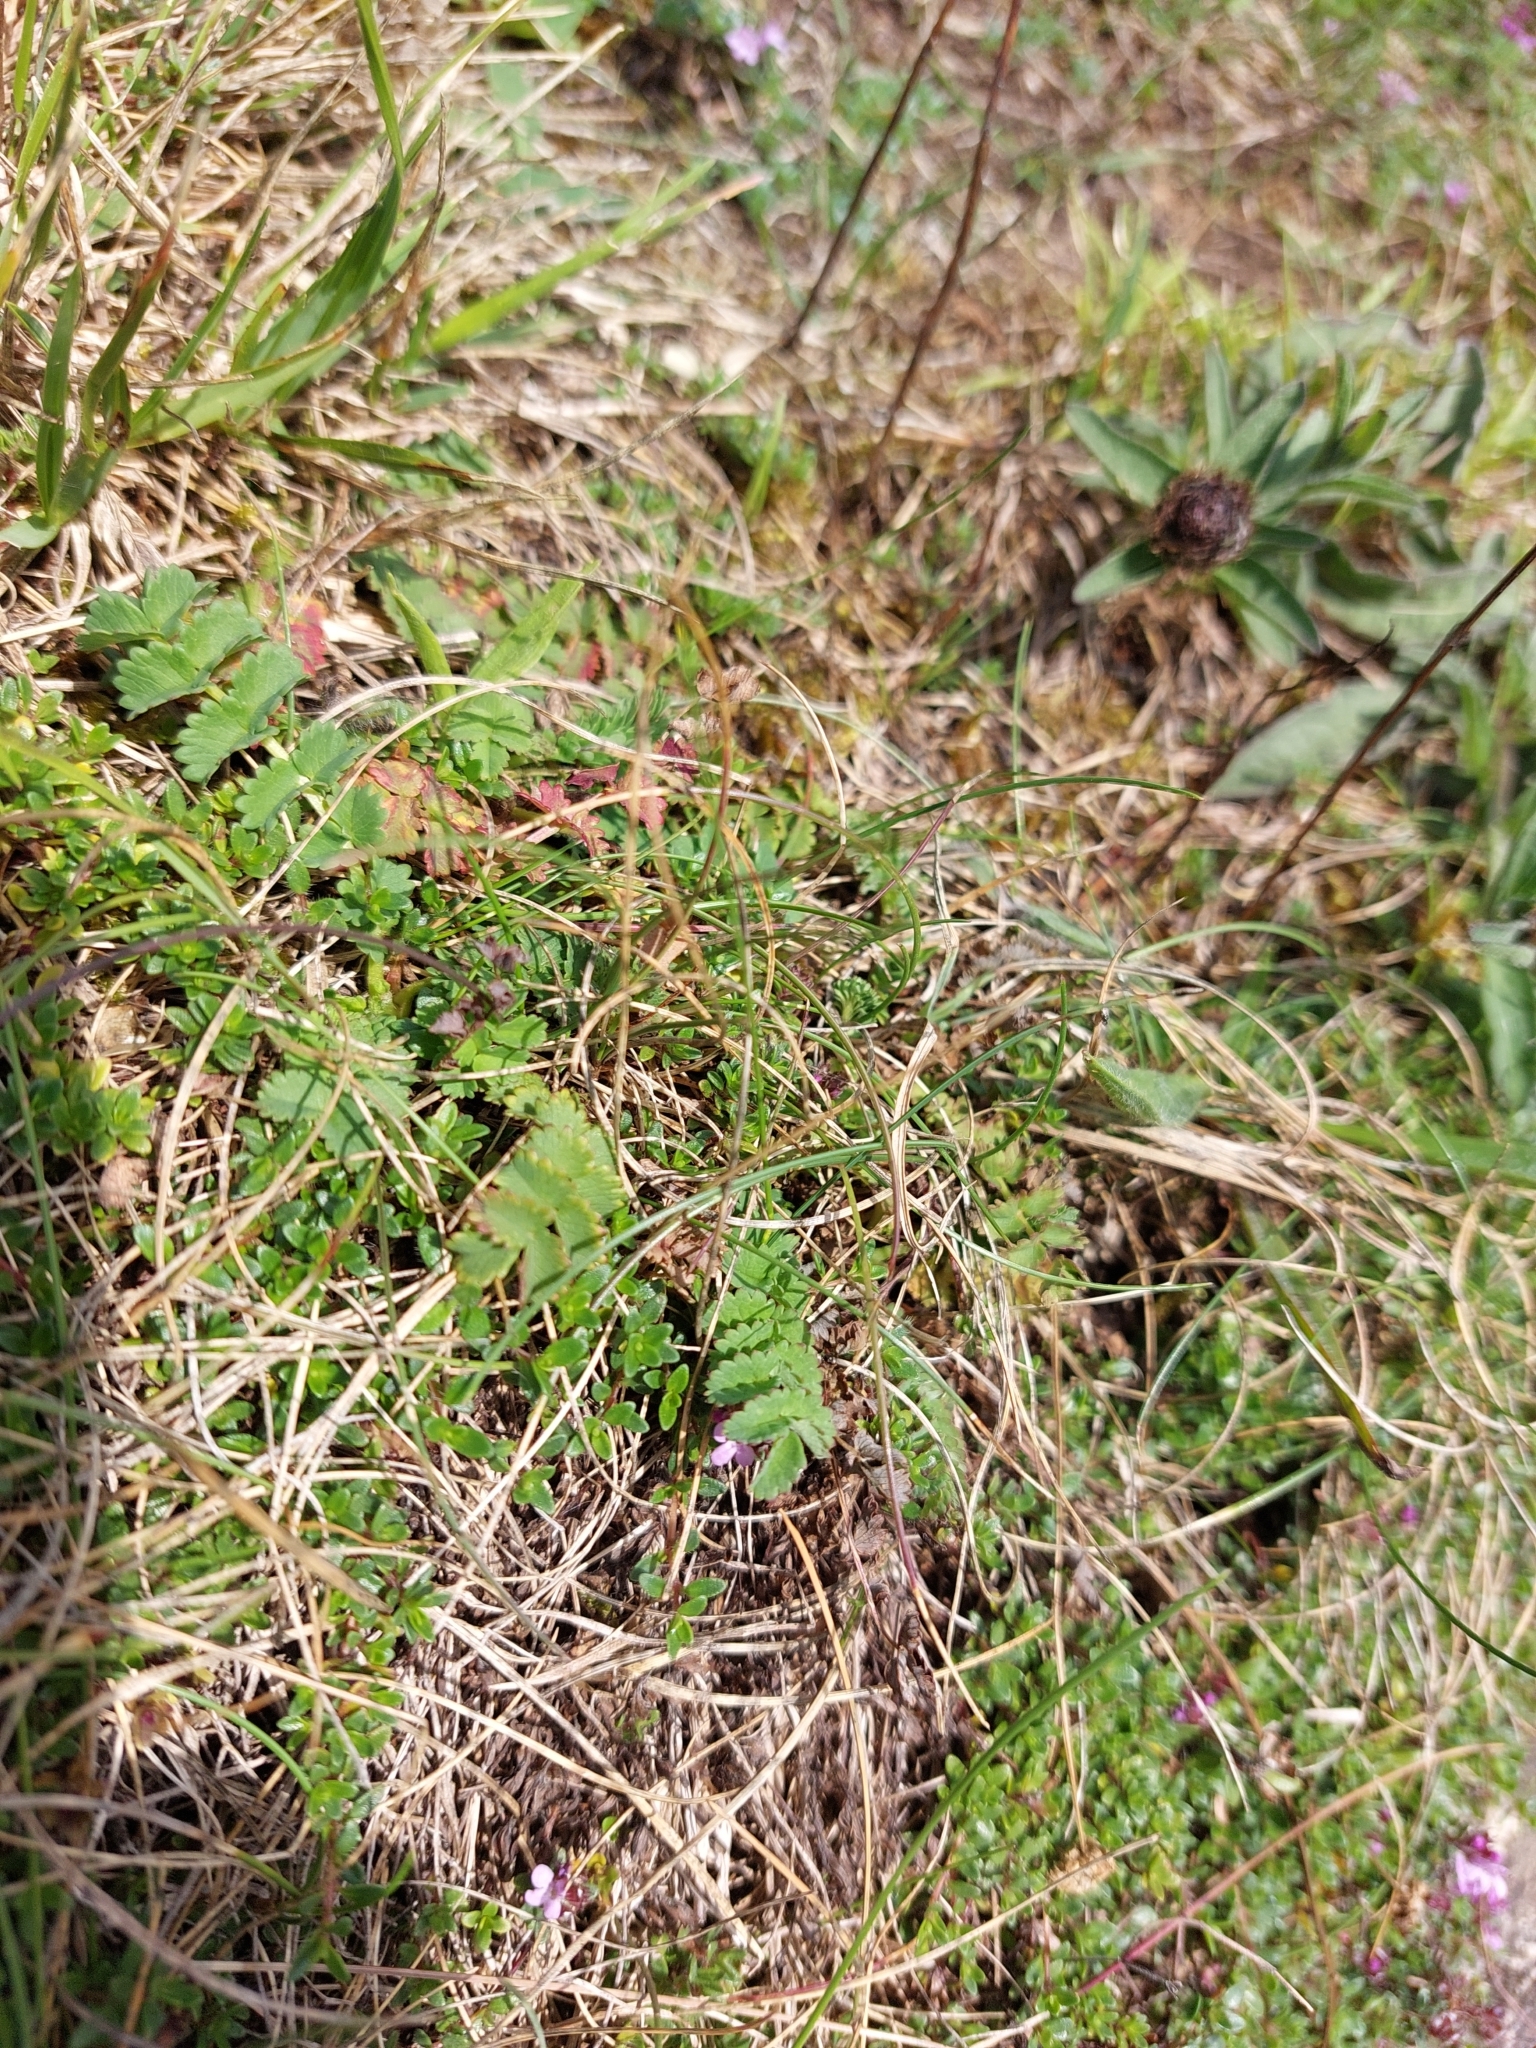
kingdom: Plantae
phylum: Tracheophyta
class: Magnoliopsida
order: Rosales
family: Rosaceae
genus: Poterium
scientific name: Poterium sanguisorba
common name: Salad burnet
